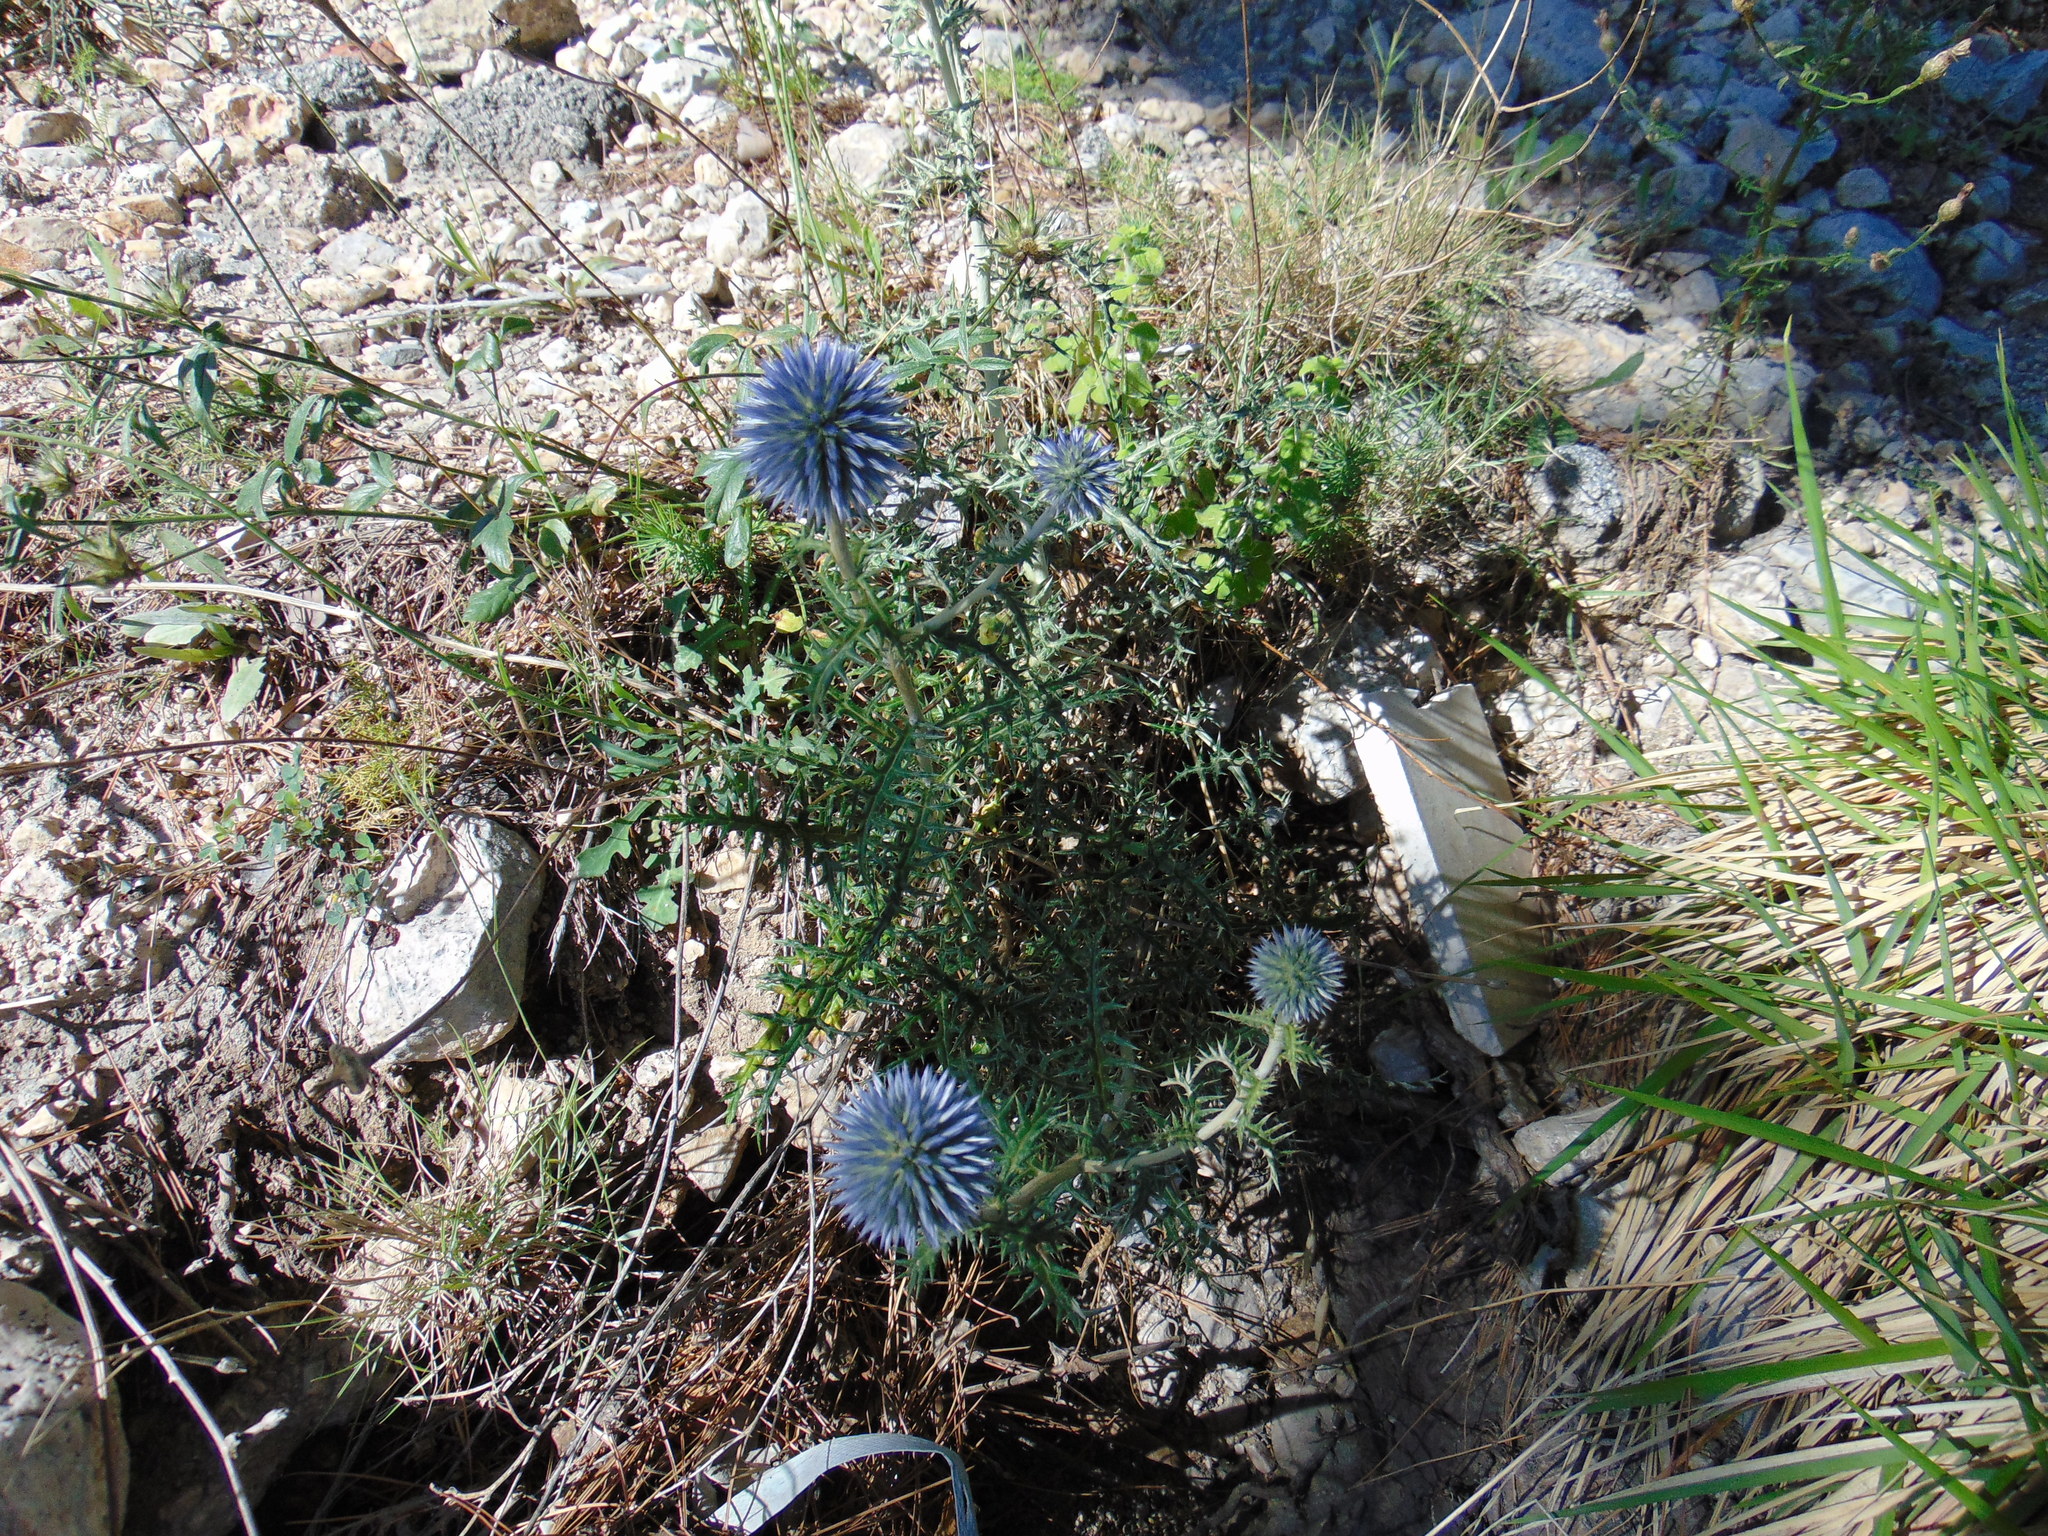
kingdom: Plantae
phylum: Tracheophyta
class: Magnoliopsida
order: Asterales
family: Asteraceae
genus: Echinops
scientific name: Echinops ritro
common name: Globe thistle
